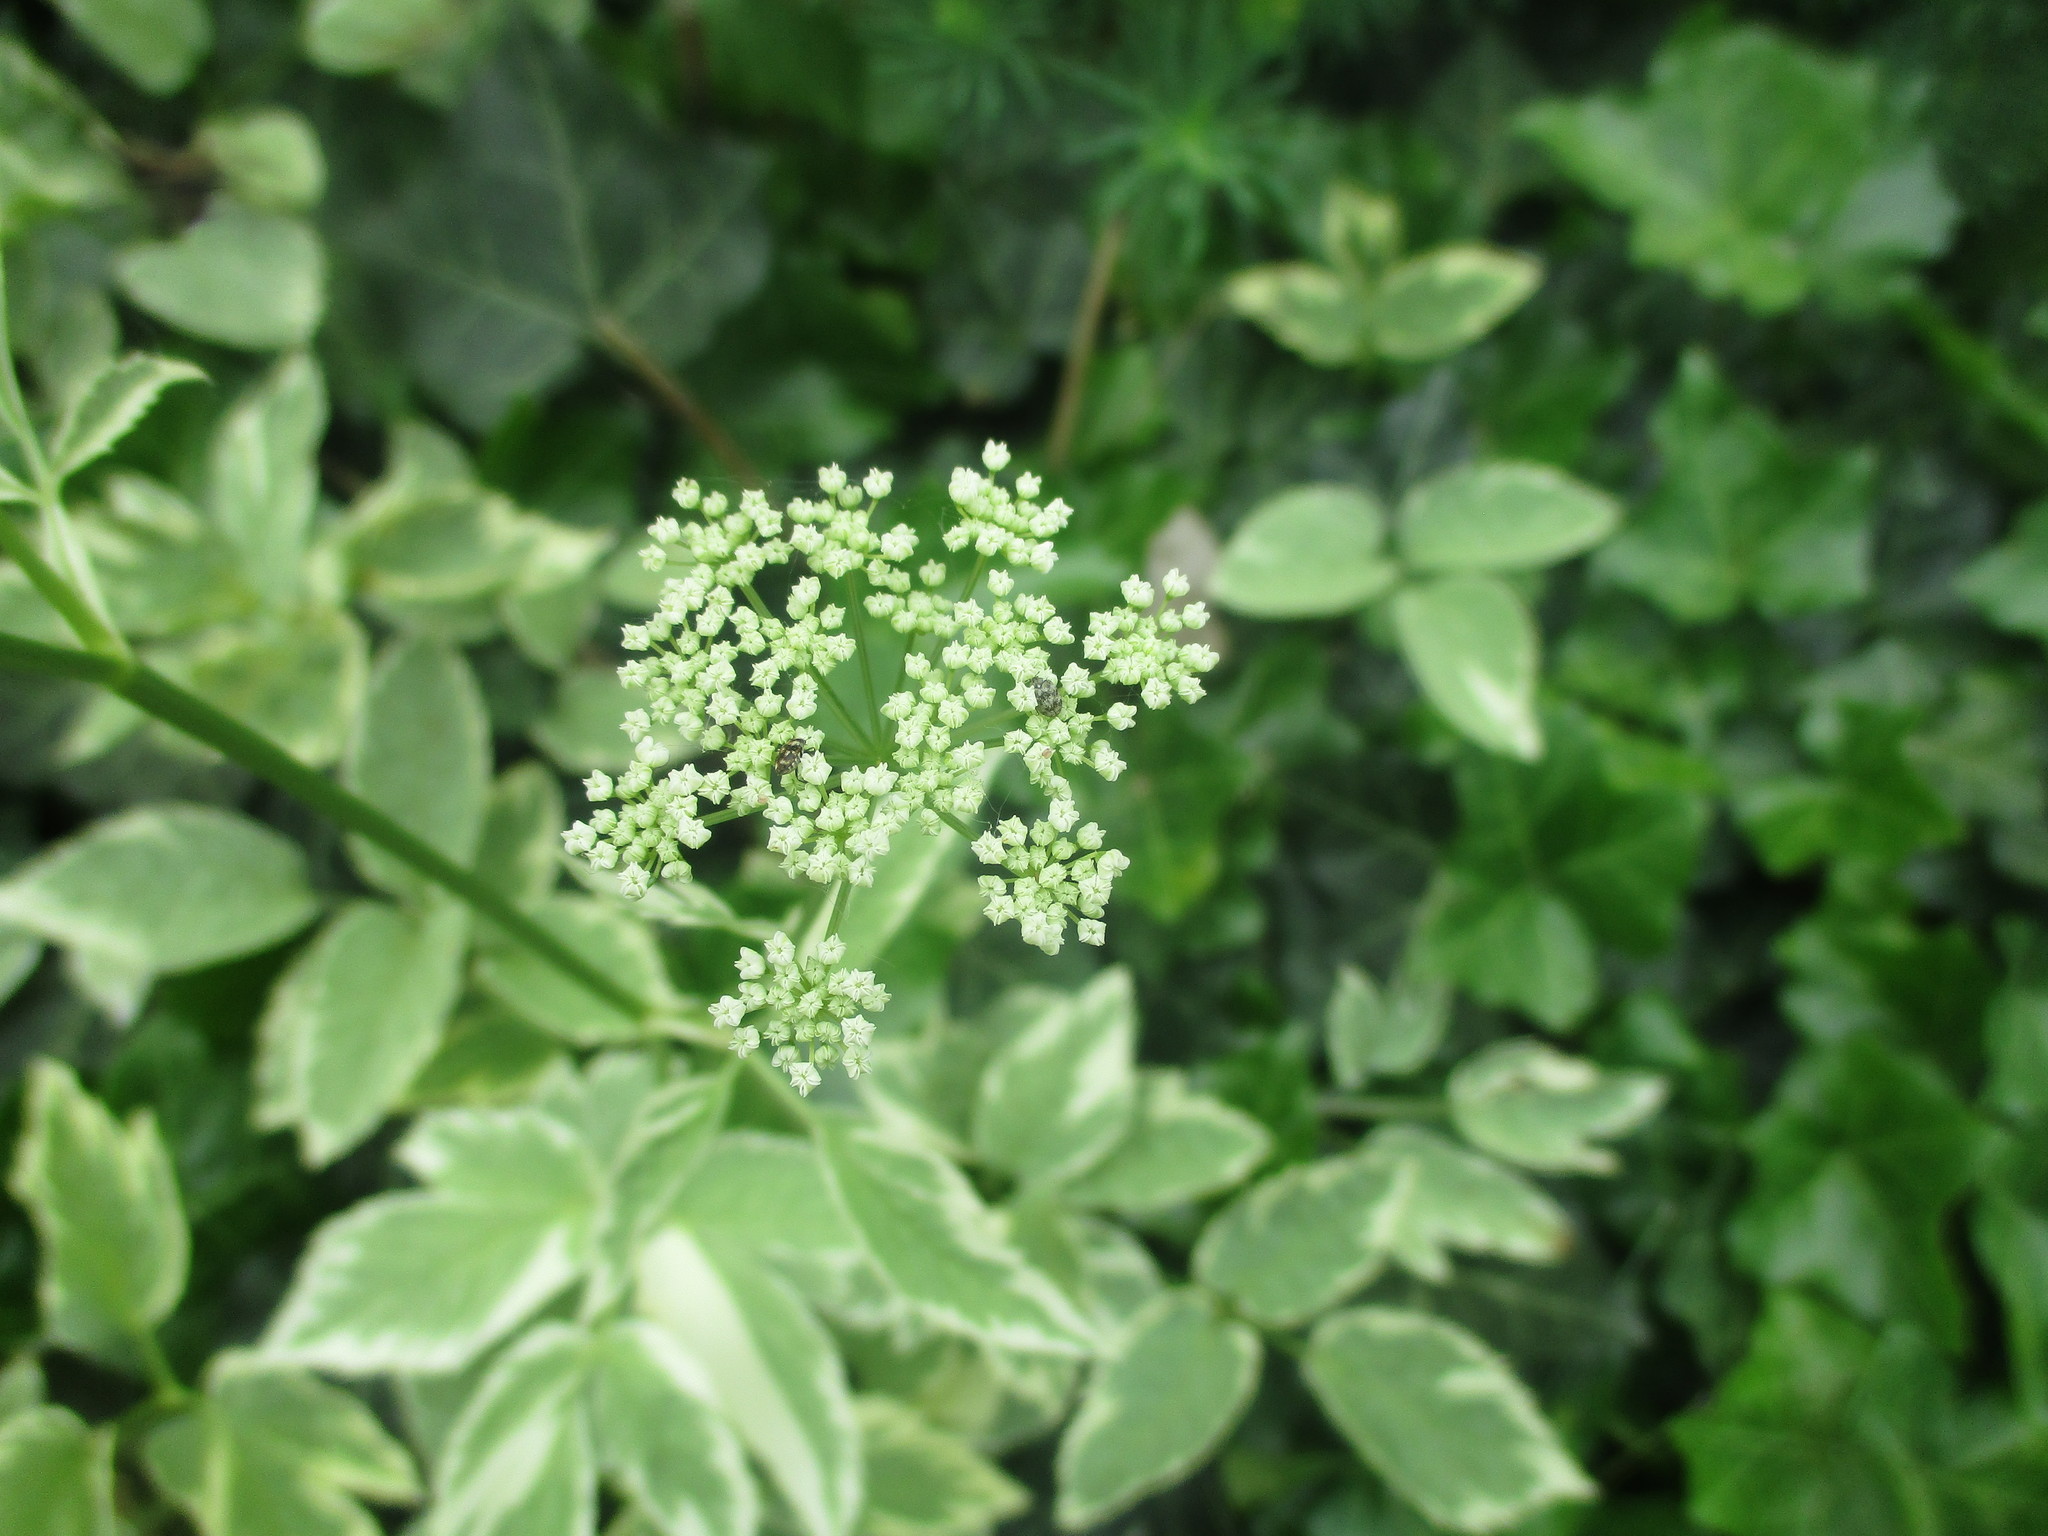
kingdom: Plantae
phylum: Tracheophyta
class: Magnoliopsida
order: Apiales
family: Apiaceae
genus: Aegopodium
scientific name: Aegopodium podagraria
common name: Ground-elder
